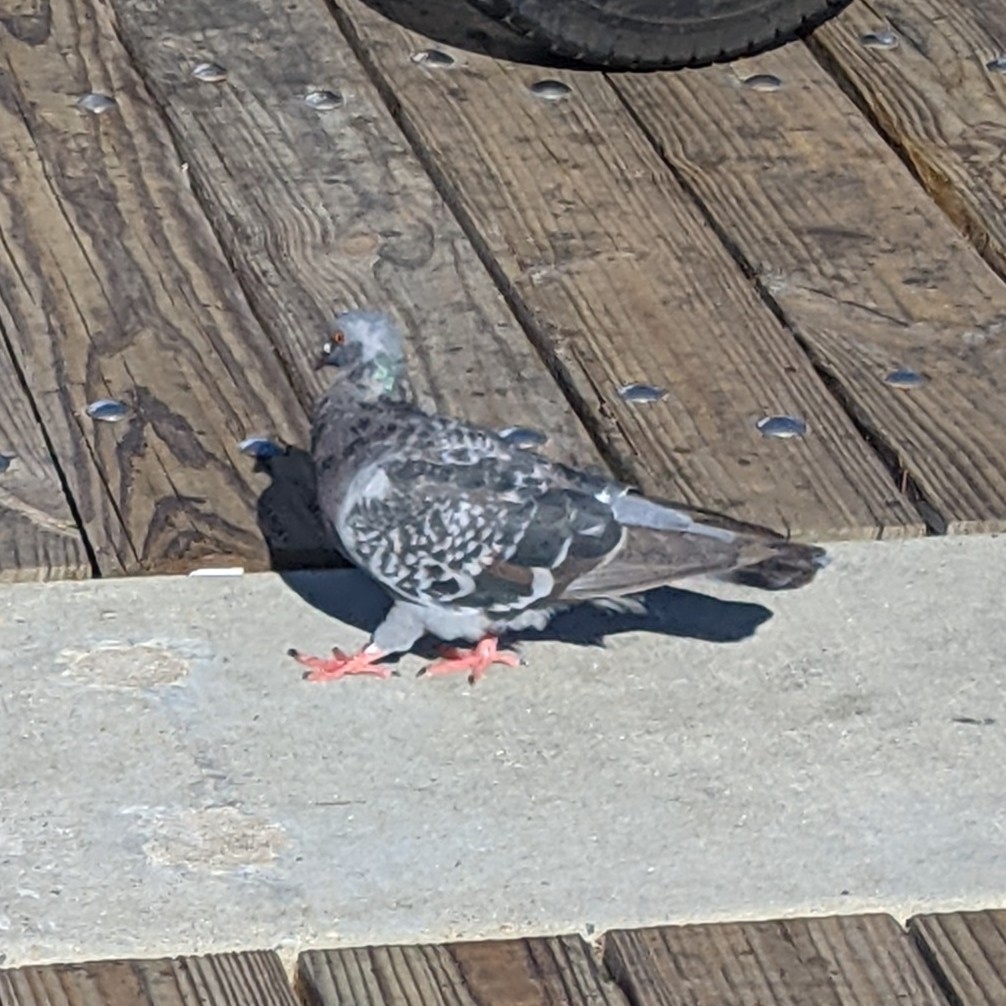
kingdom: Animalia
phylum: Chordata
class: Aves
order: Columbiformes
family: Columbidae
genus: Columba
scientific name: Columba livia
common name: Rock pigeon
